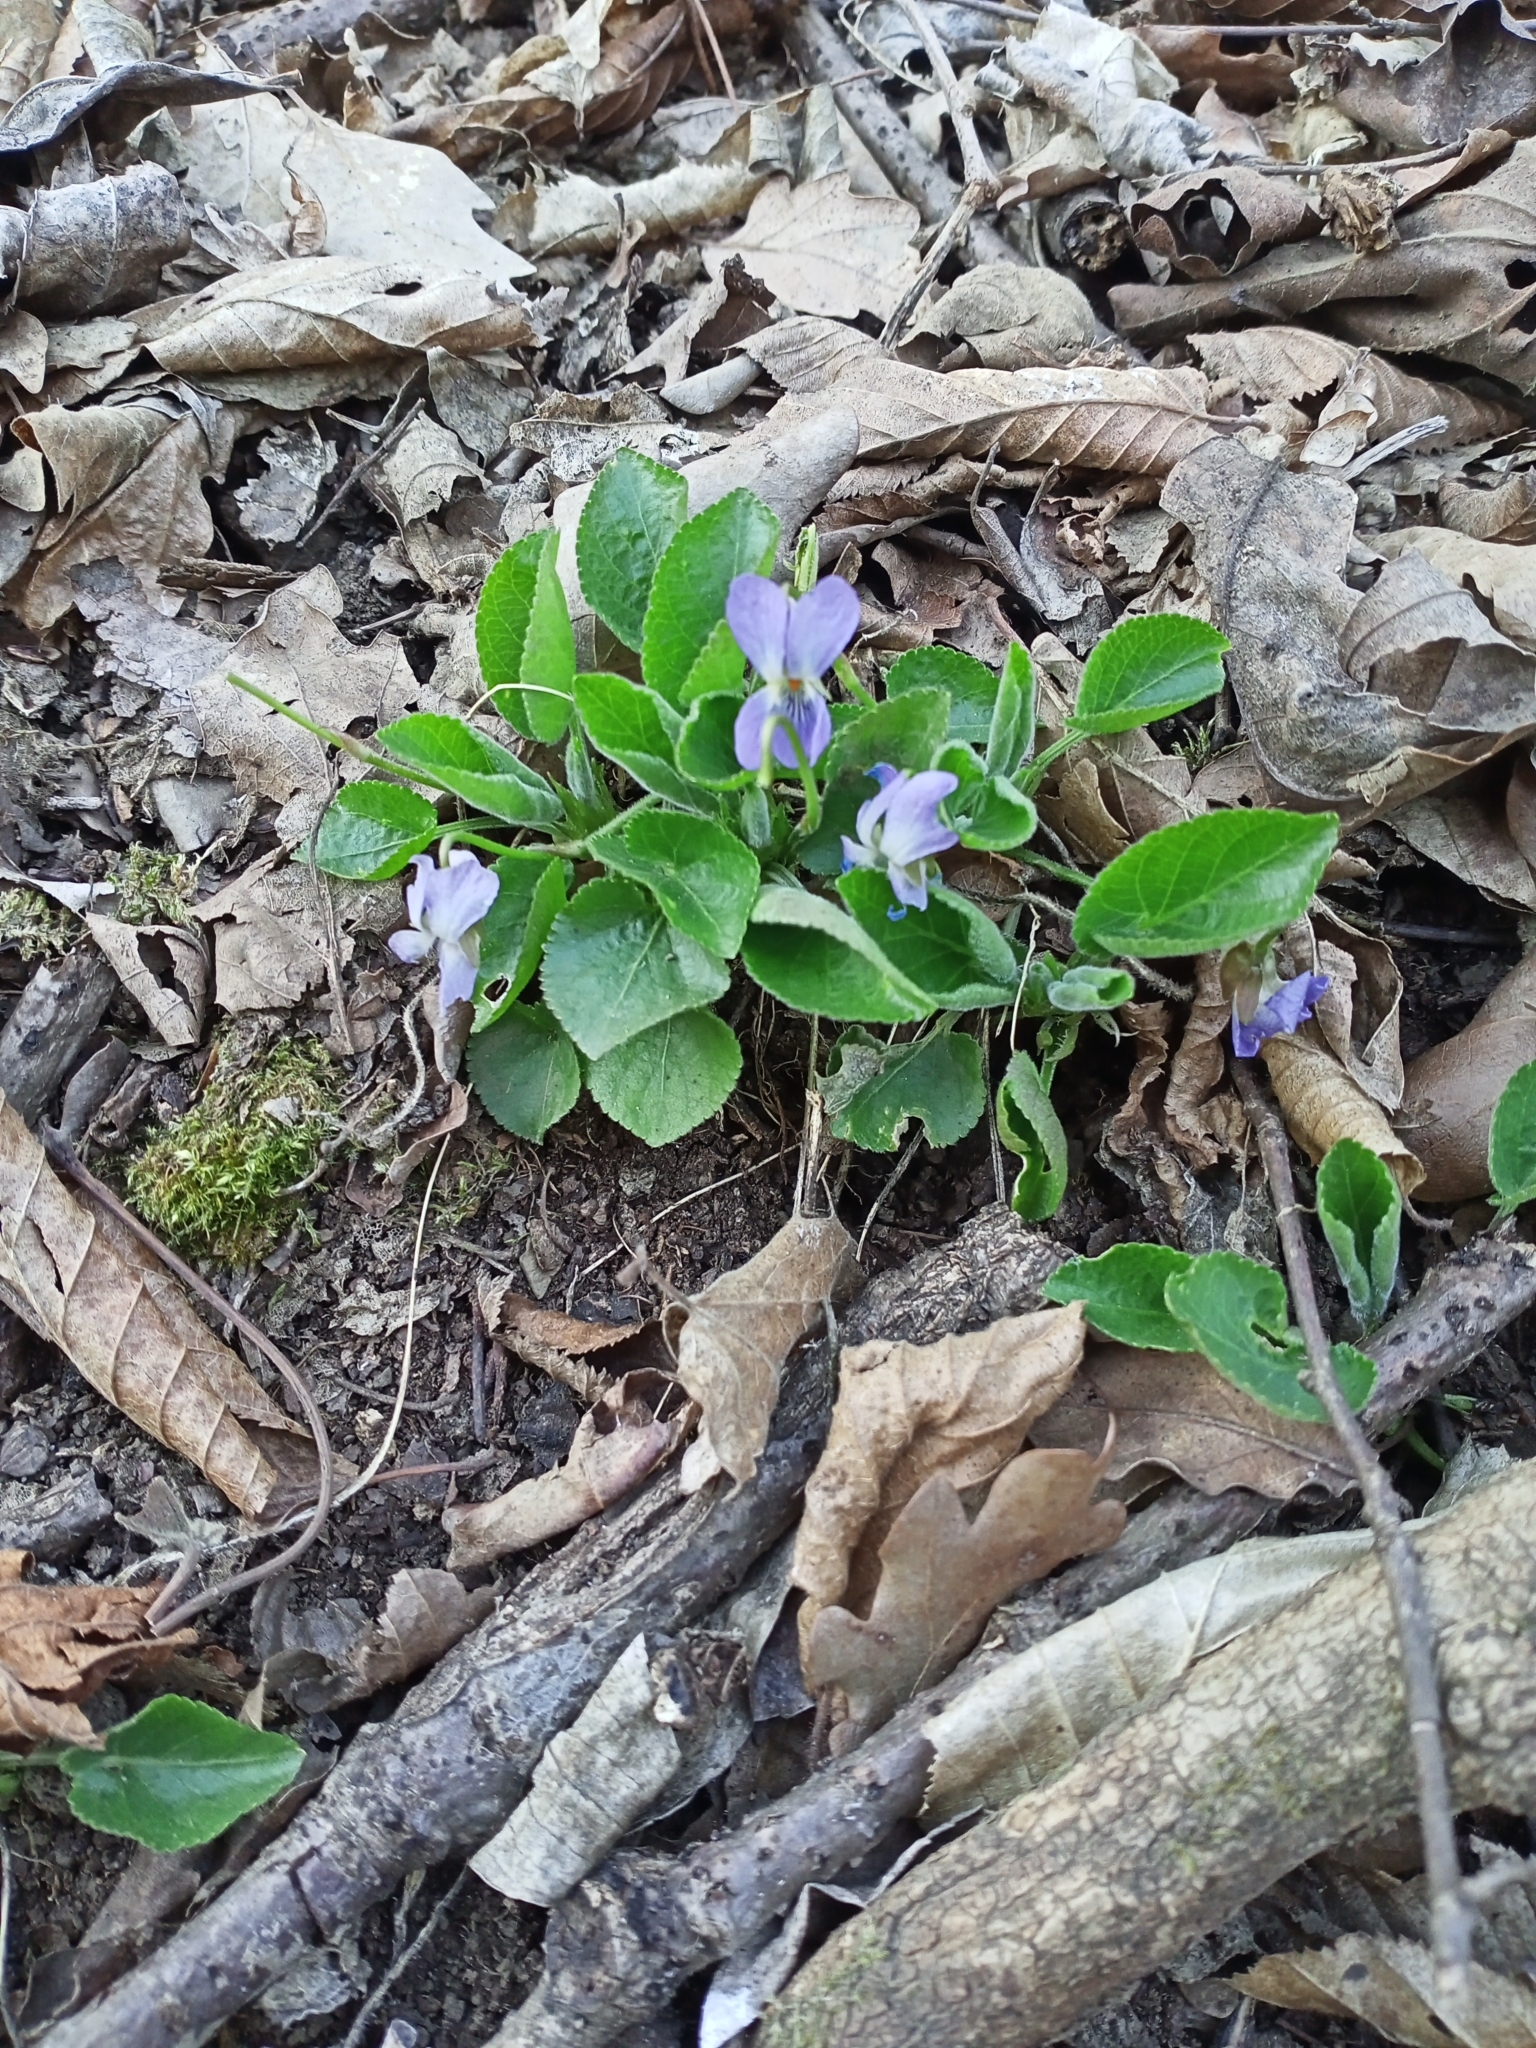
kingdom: Plantae
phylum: Tracheophyta
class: Magnoliopsida
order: Malpighiales
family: Violaceae
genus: Viola
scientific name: Viola collina
